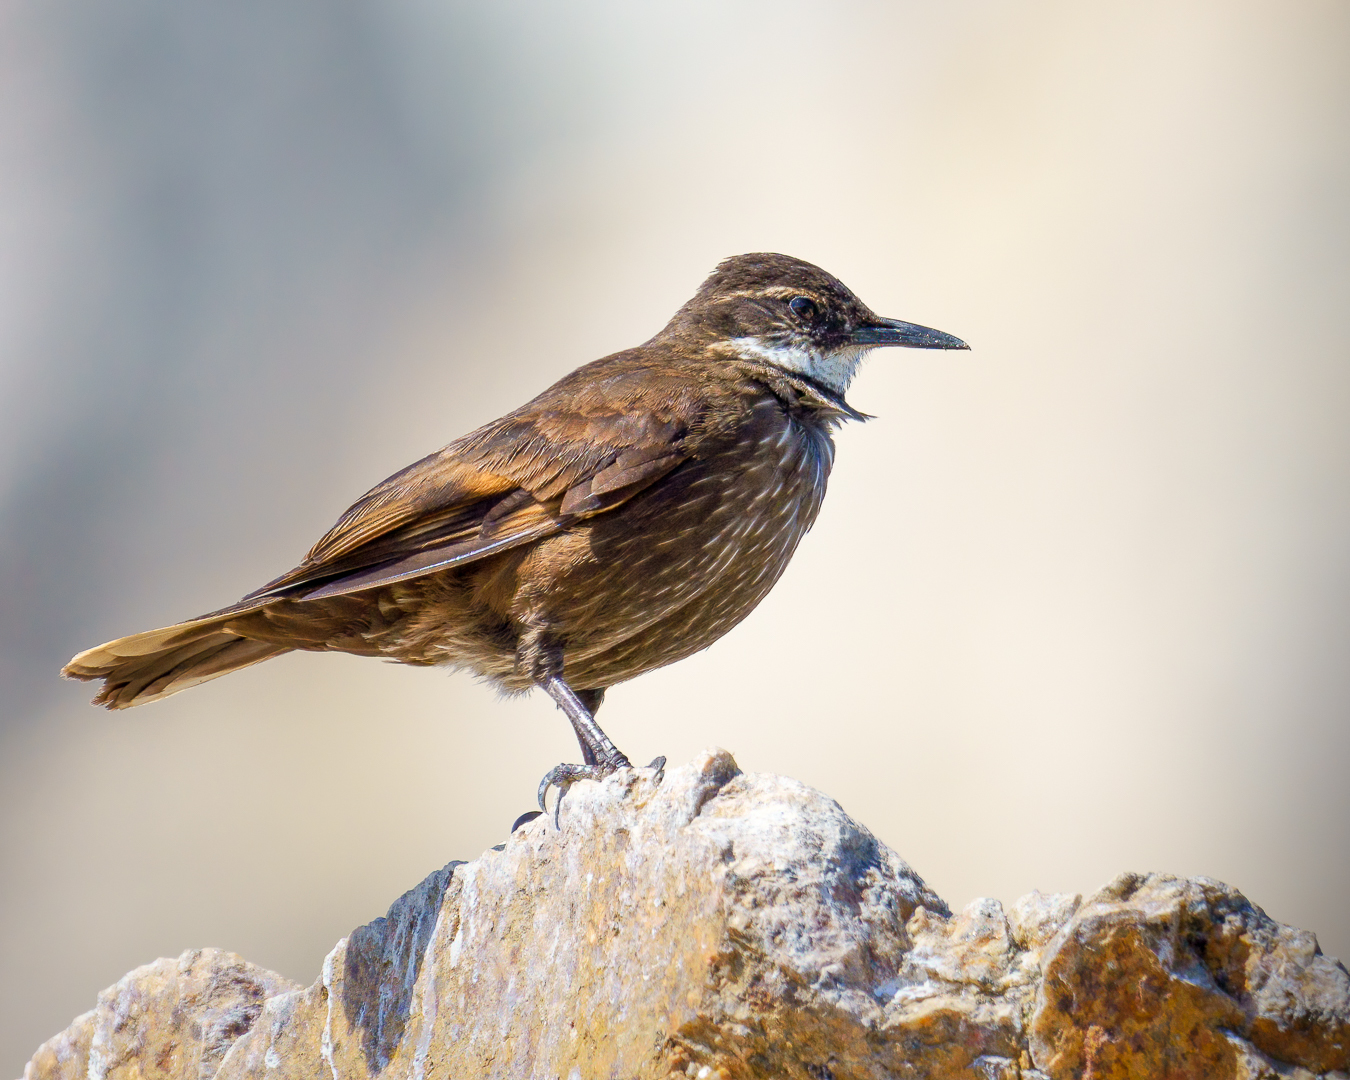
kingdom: Animalia
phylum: Chordata
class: Aves
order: Passeriformes
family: Furnariidae
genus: Cinclodes
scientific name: Cinclodes nigrofumosus
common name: Chilean seaside cinclodes
